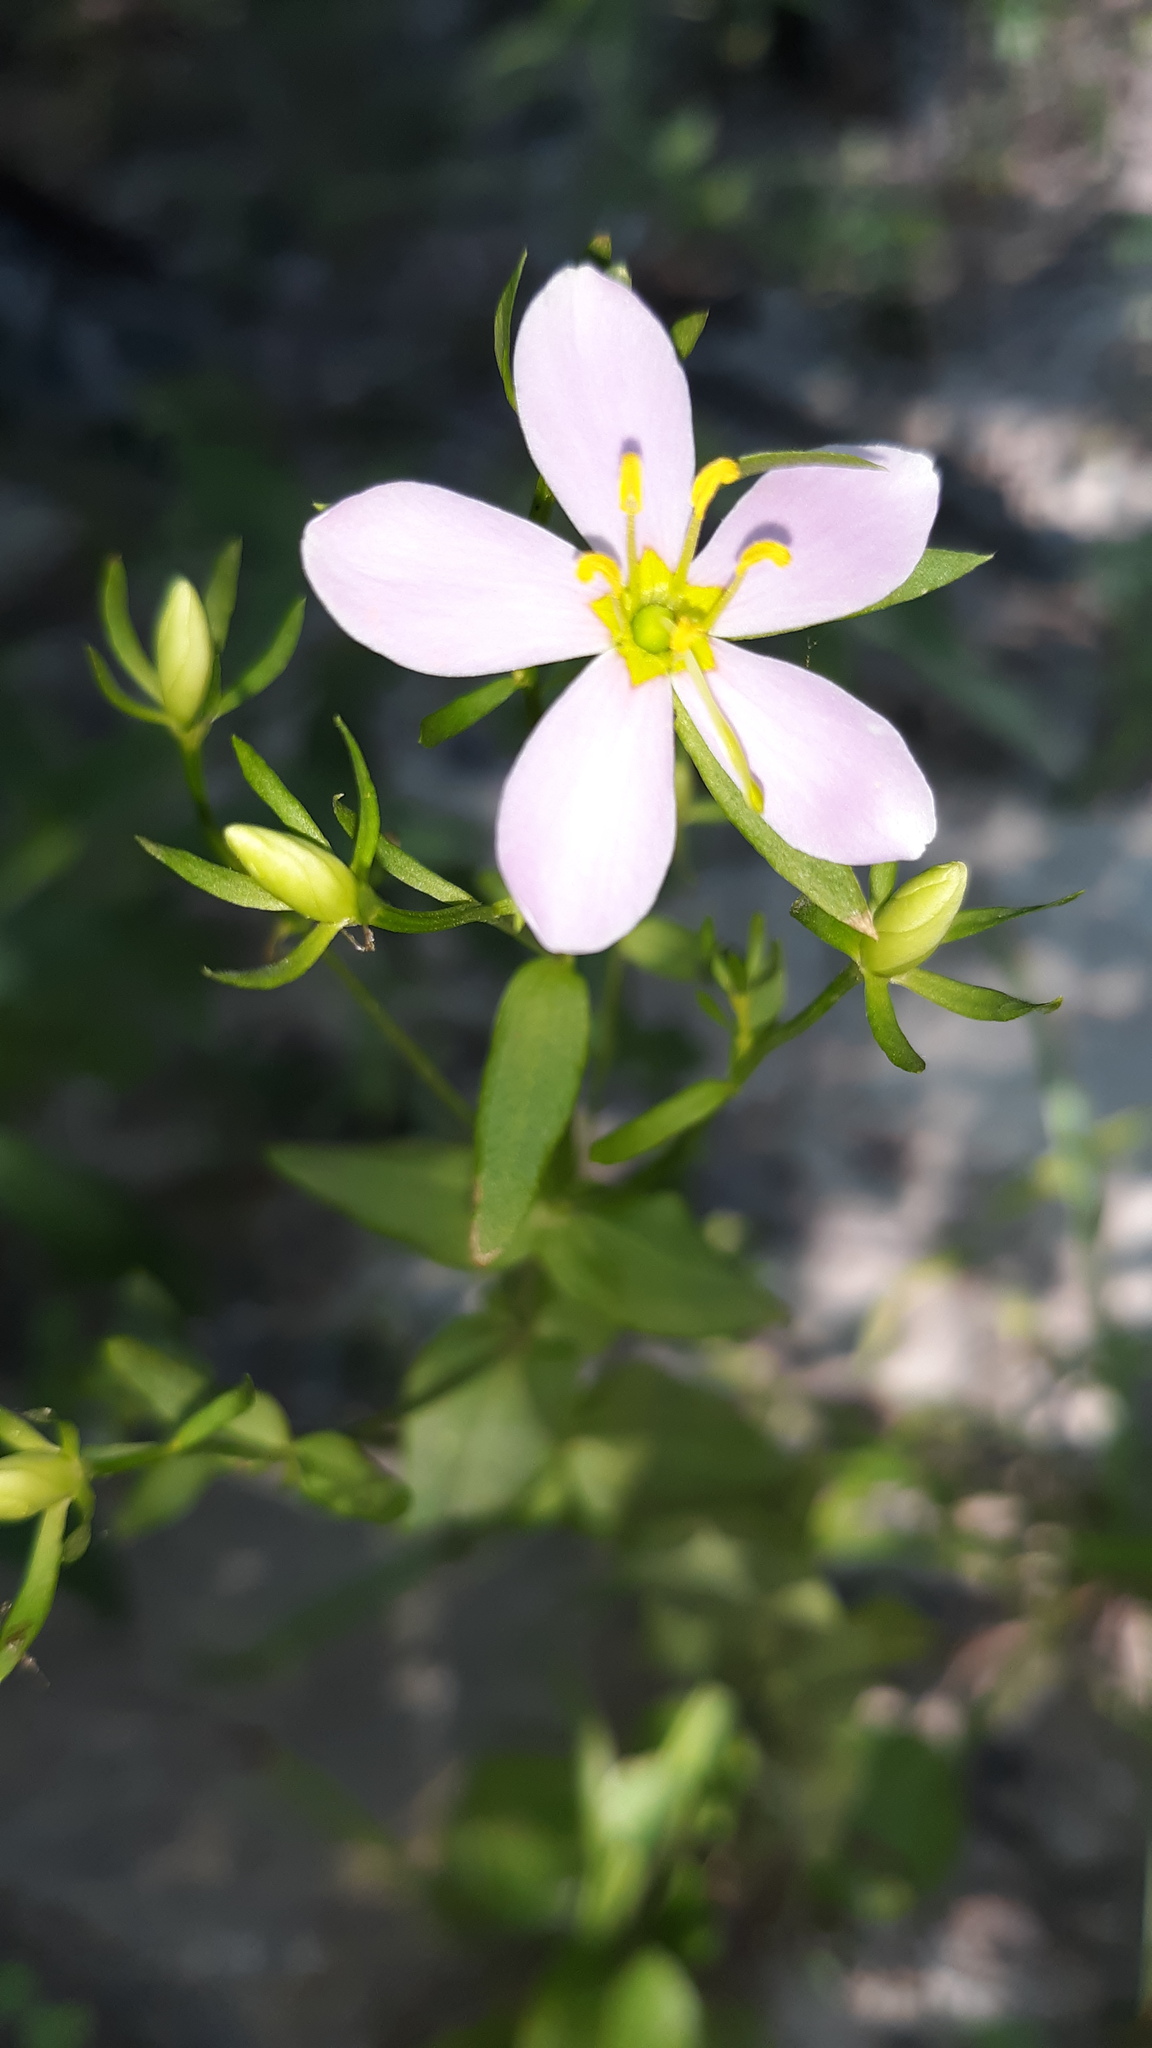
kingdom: Plantae
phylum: Tracheophyta
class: Magnoliopsida
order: Gentianales
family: Gentianaceae
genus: Sabatia
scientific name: Sabatia angularis
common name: Rose-pink
